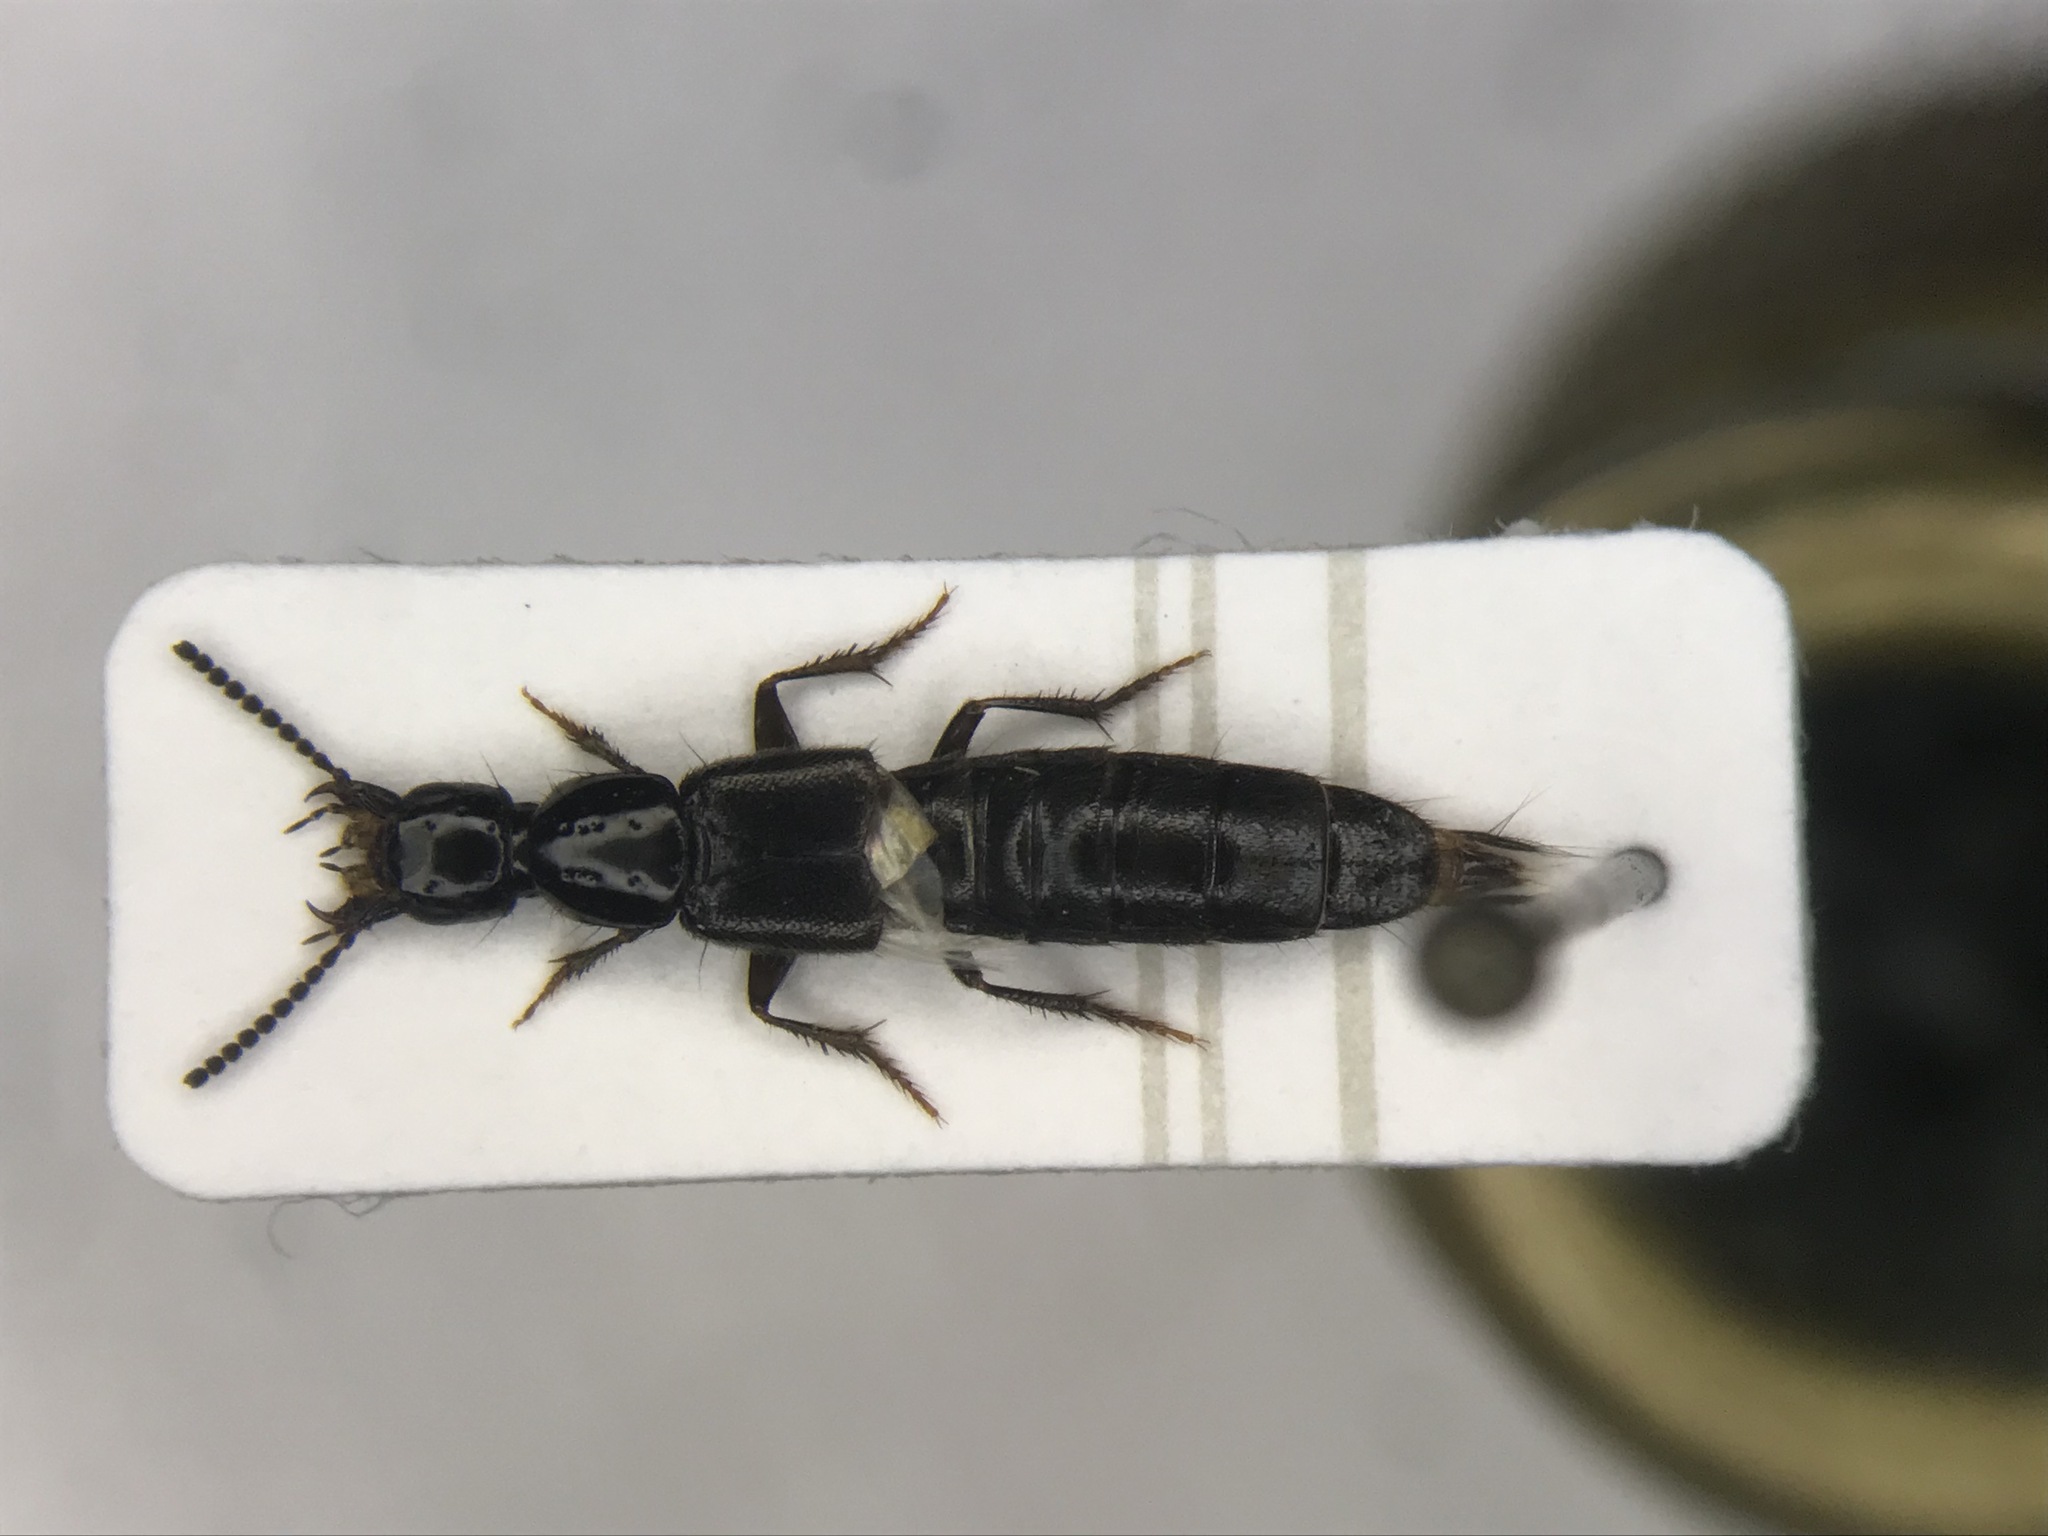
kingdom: Animalia
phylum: Arthropoda
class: Insecta
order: Coleoptera
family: Staphylinidae
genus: Philonthus
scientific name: Philonthus rectangulus
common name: Rove beetle
